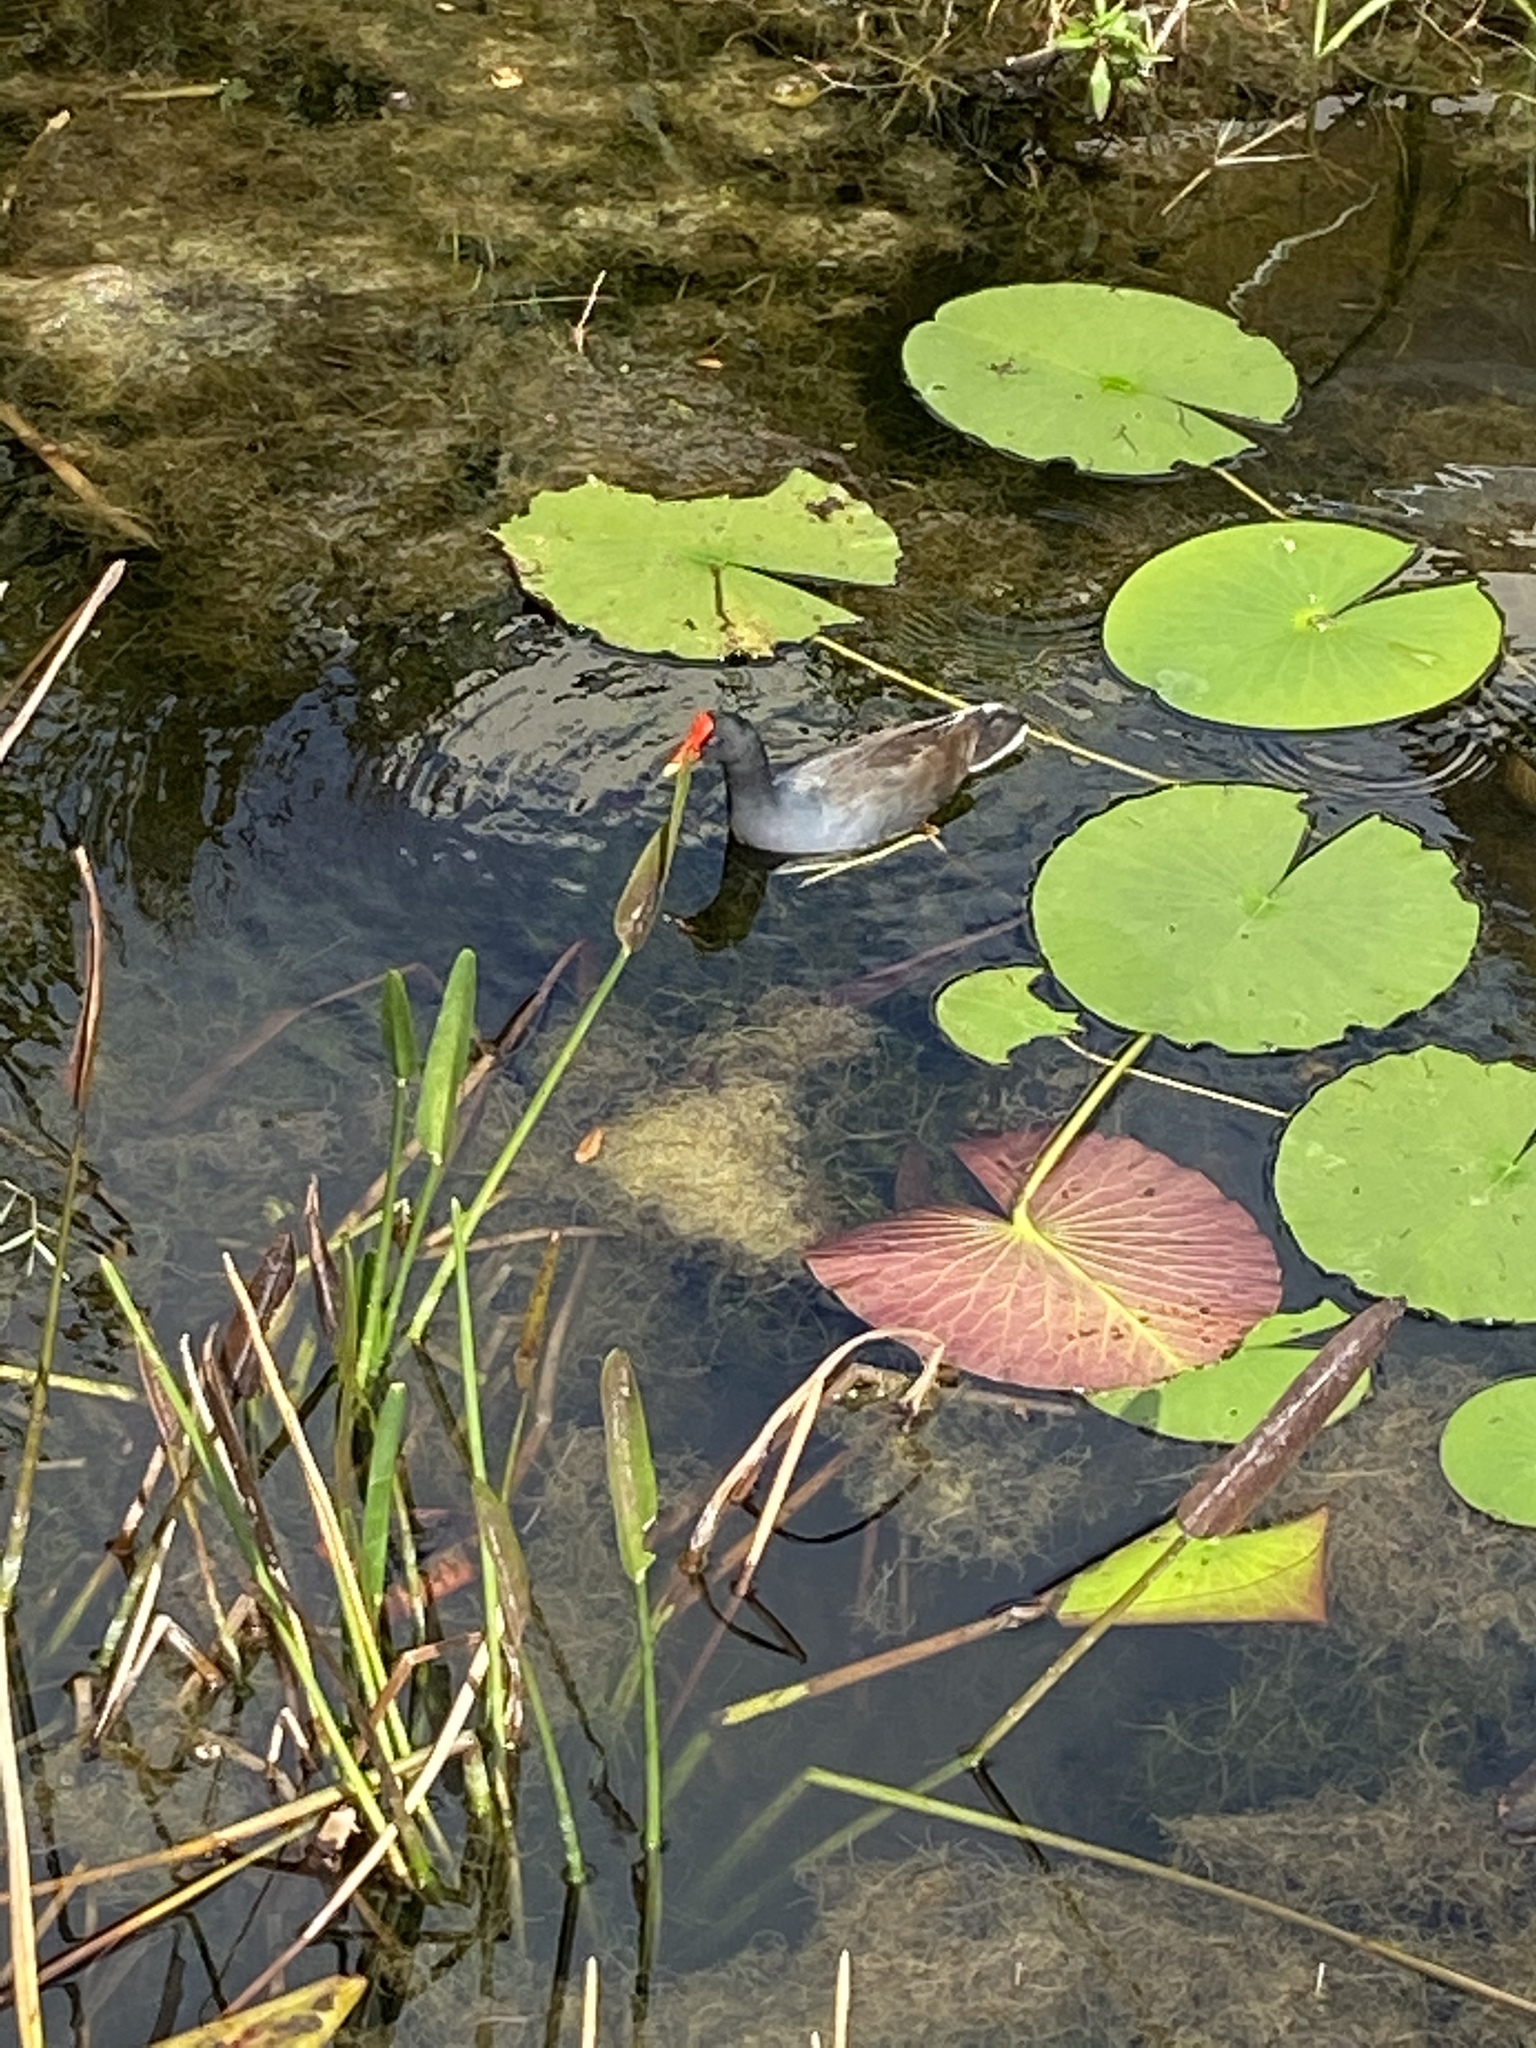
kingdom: Animalia
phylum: Chordata
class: Aves
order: Gruiformes
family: Rallidae
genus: Gallinula
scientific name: Gallinula chloropus
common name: Common moorhen
